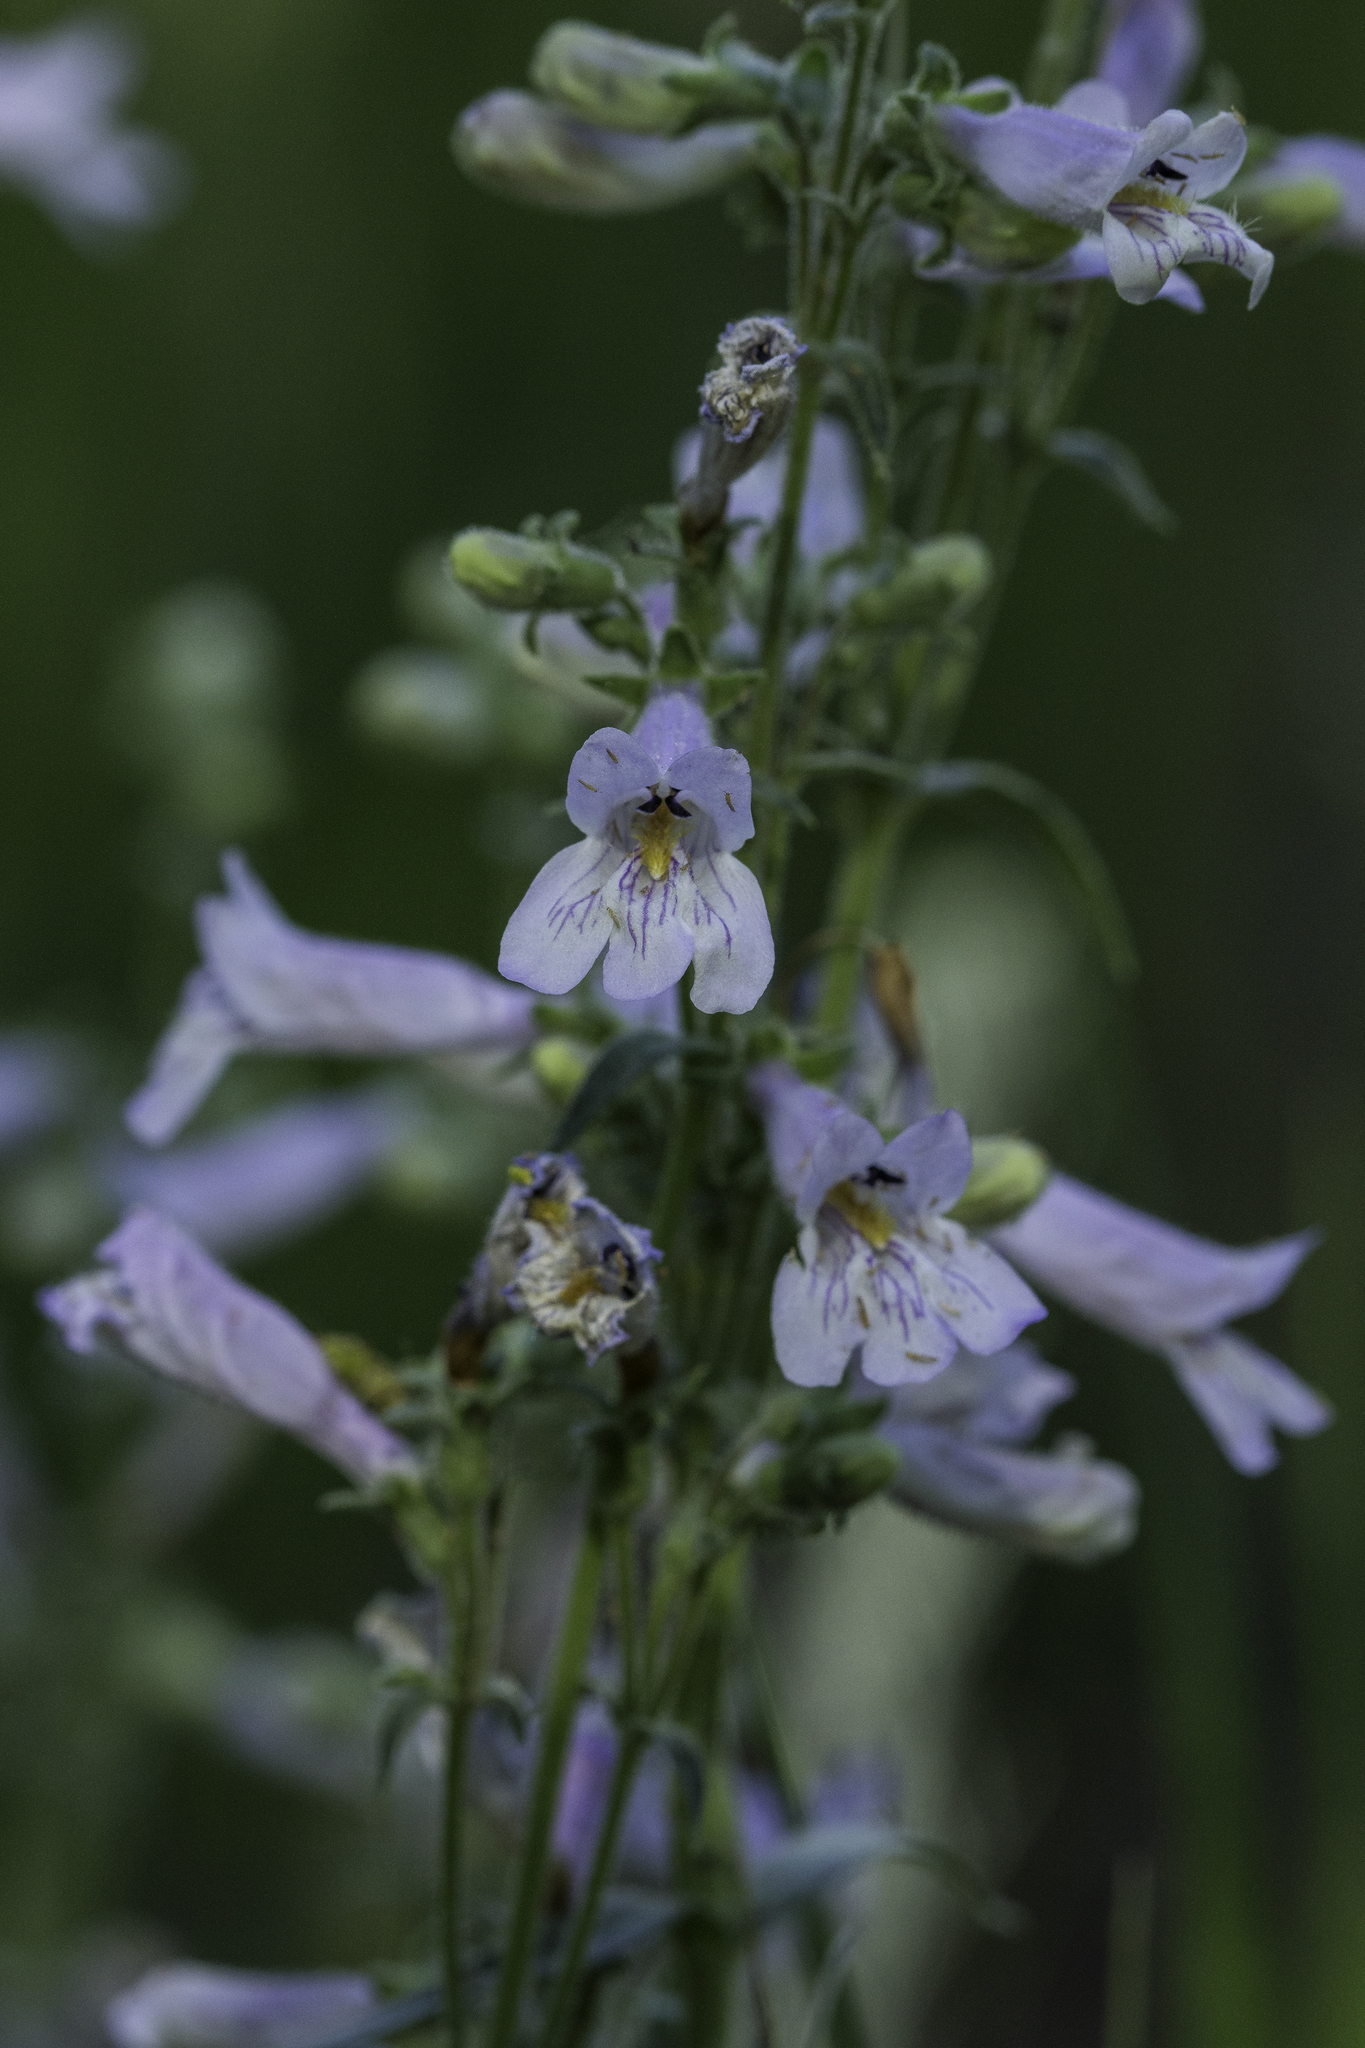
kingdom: Plantae
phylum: Tracheophyta
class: Magnoliopsida
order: Lamiales
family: Plantaginaceae
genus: Penstemon
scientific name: Penstemon oliganthus
